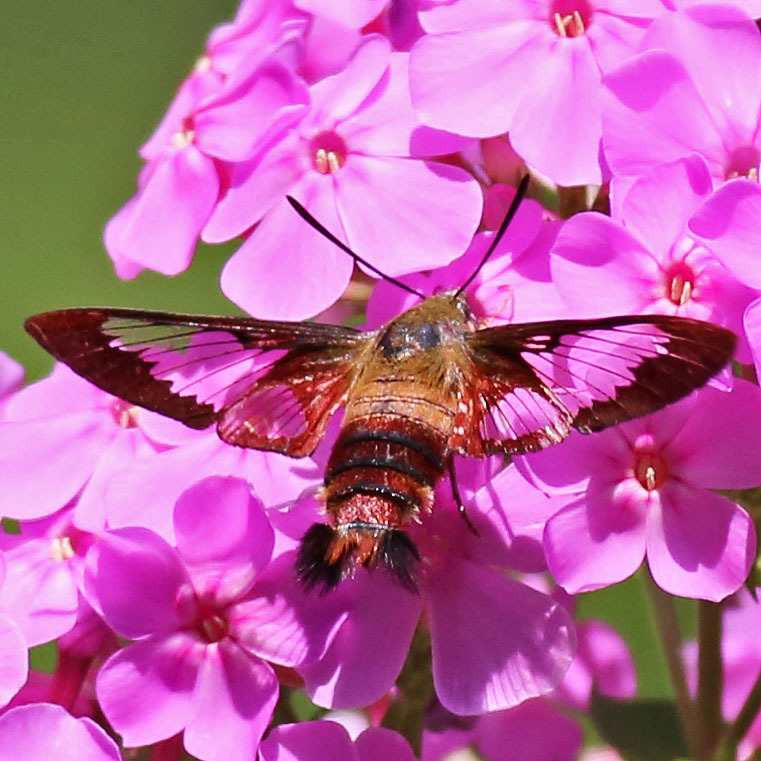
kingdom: Animalia
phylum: Arthropoda
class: Insecta
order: Lepidoptera
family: Sphingidae
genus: Hemaris
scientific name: Hemaris thysbe
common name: Common clear-wing
